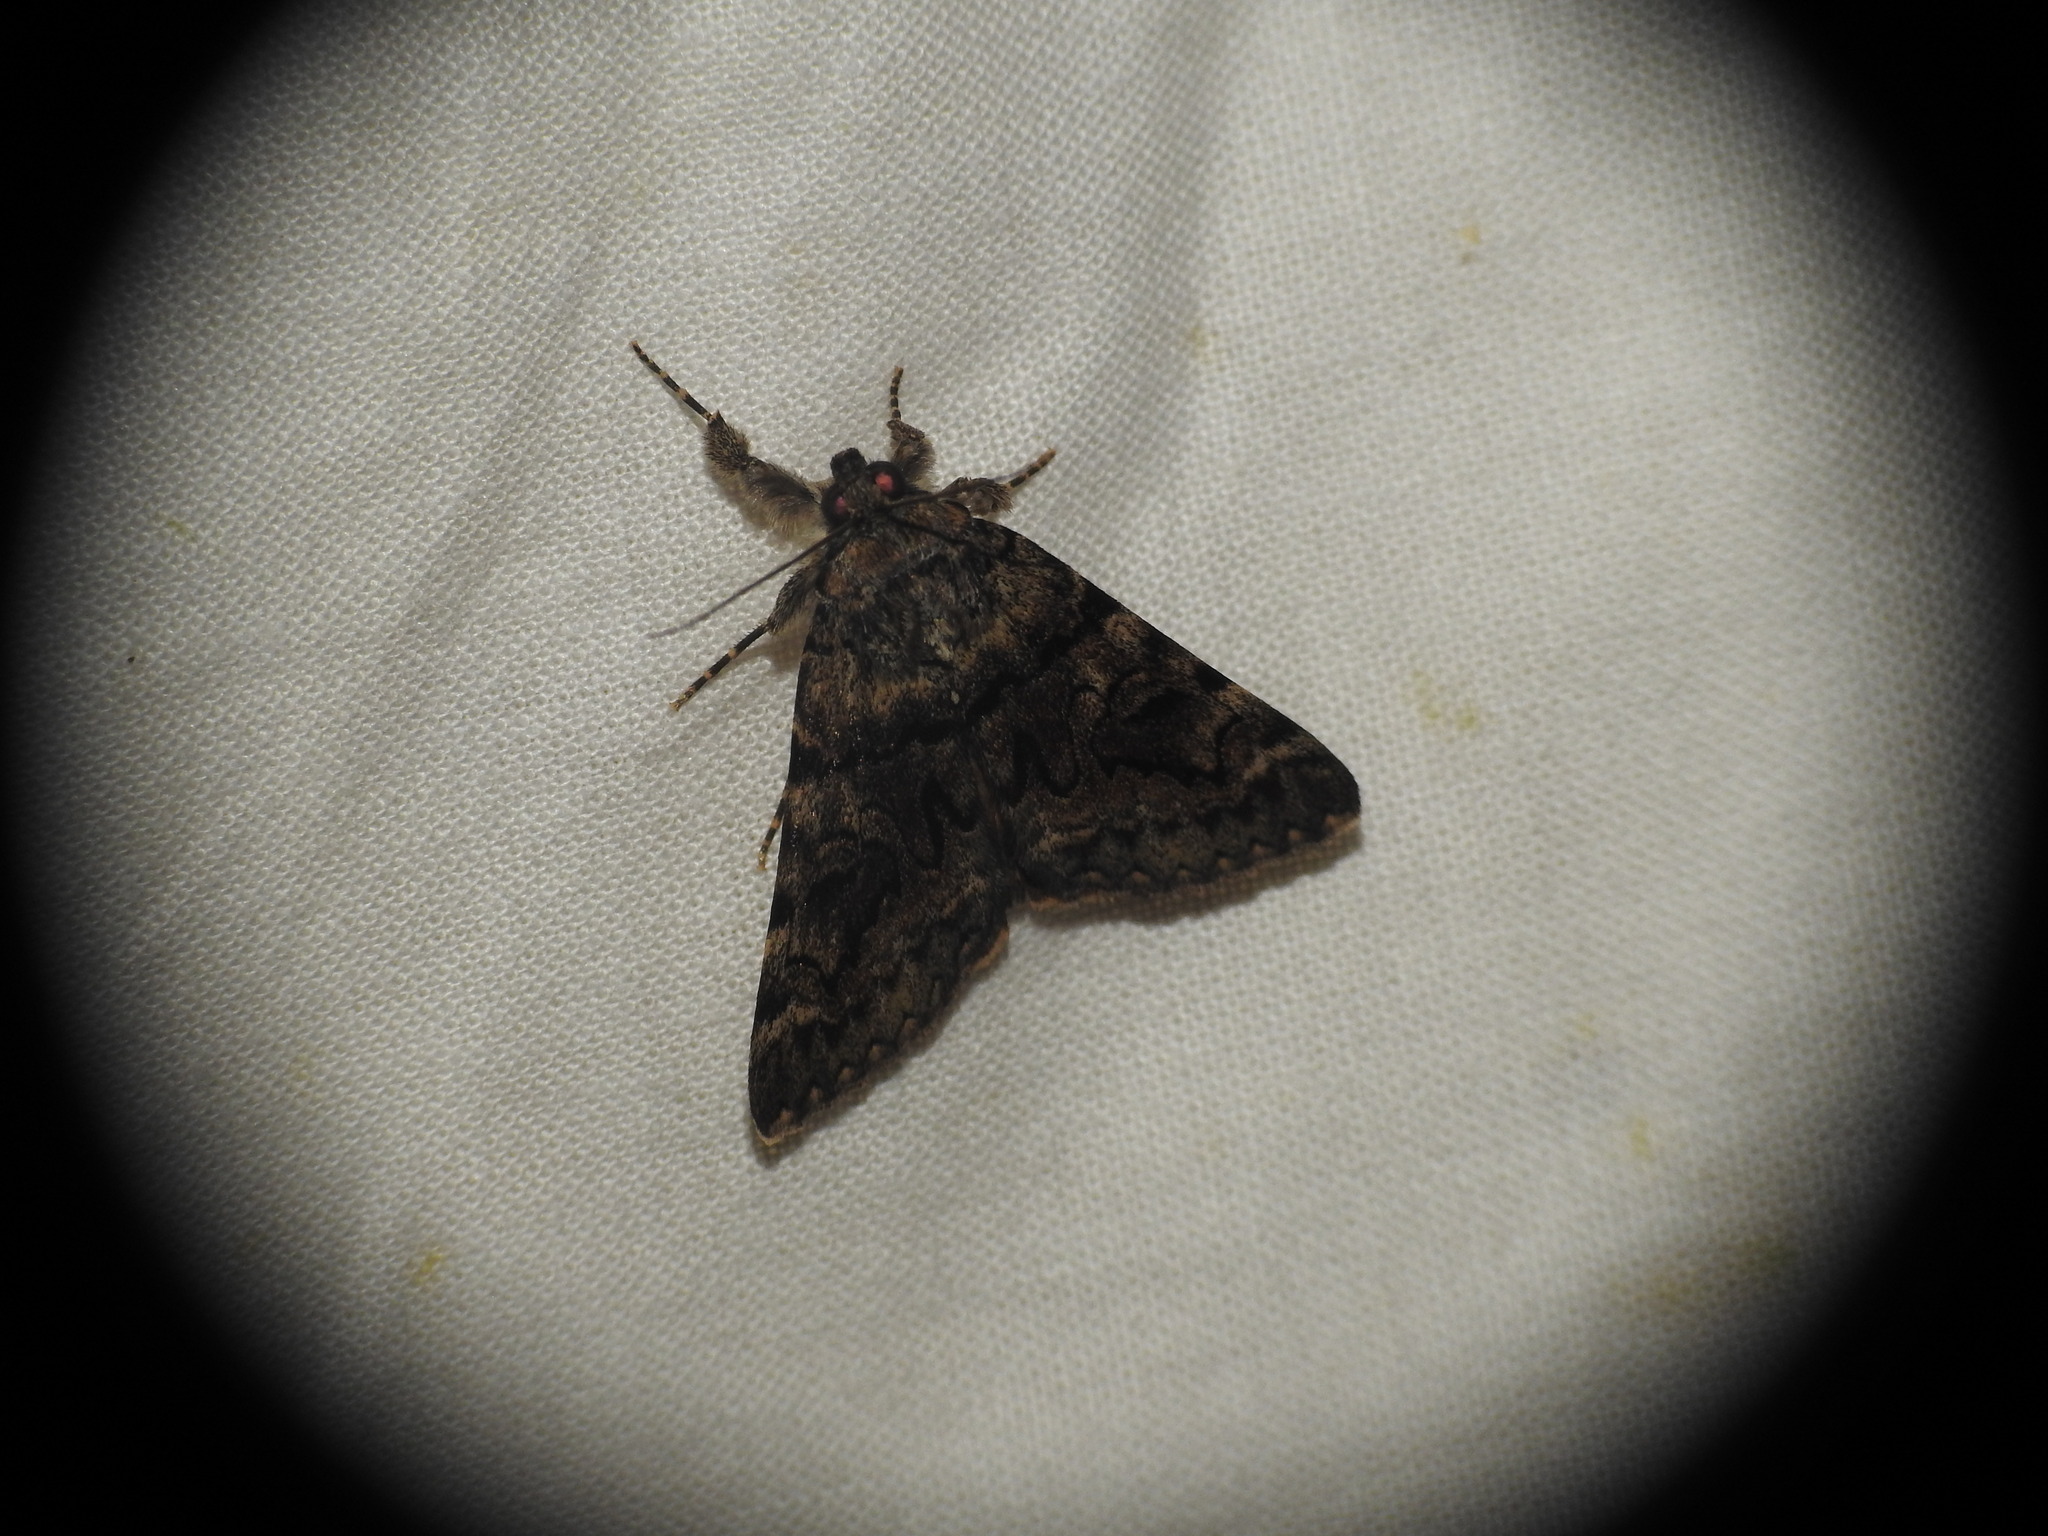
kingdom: Animalia
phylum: Arthropoda
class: Insecta
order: Lepidoptera
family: Erebidae
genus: Catocala
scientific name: Catocala nymphagoga
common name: Oak yellow underwing
